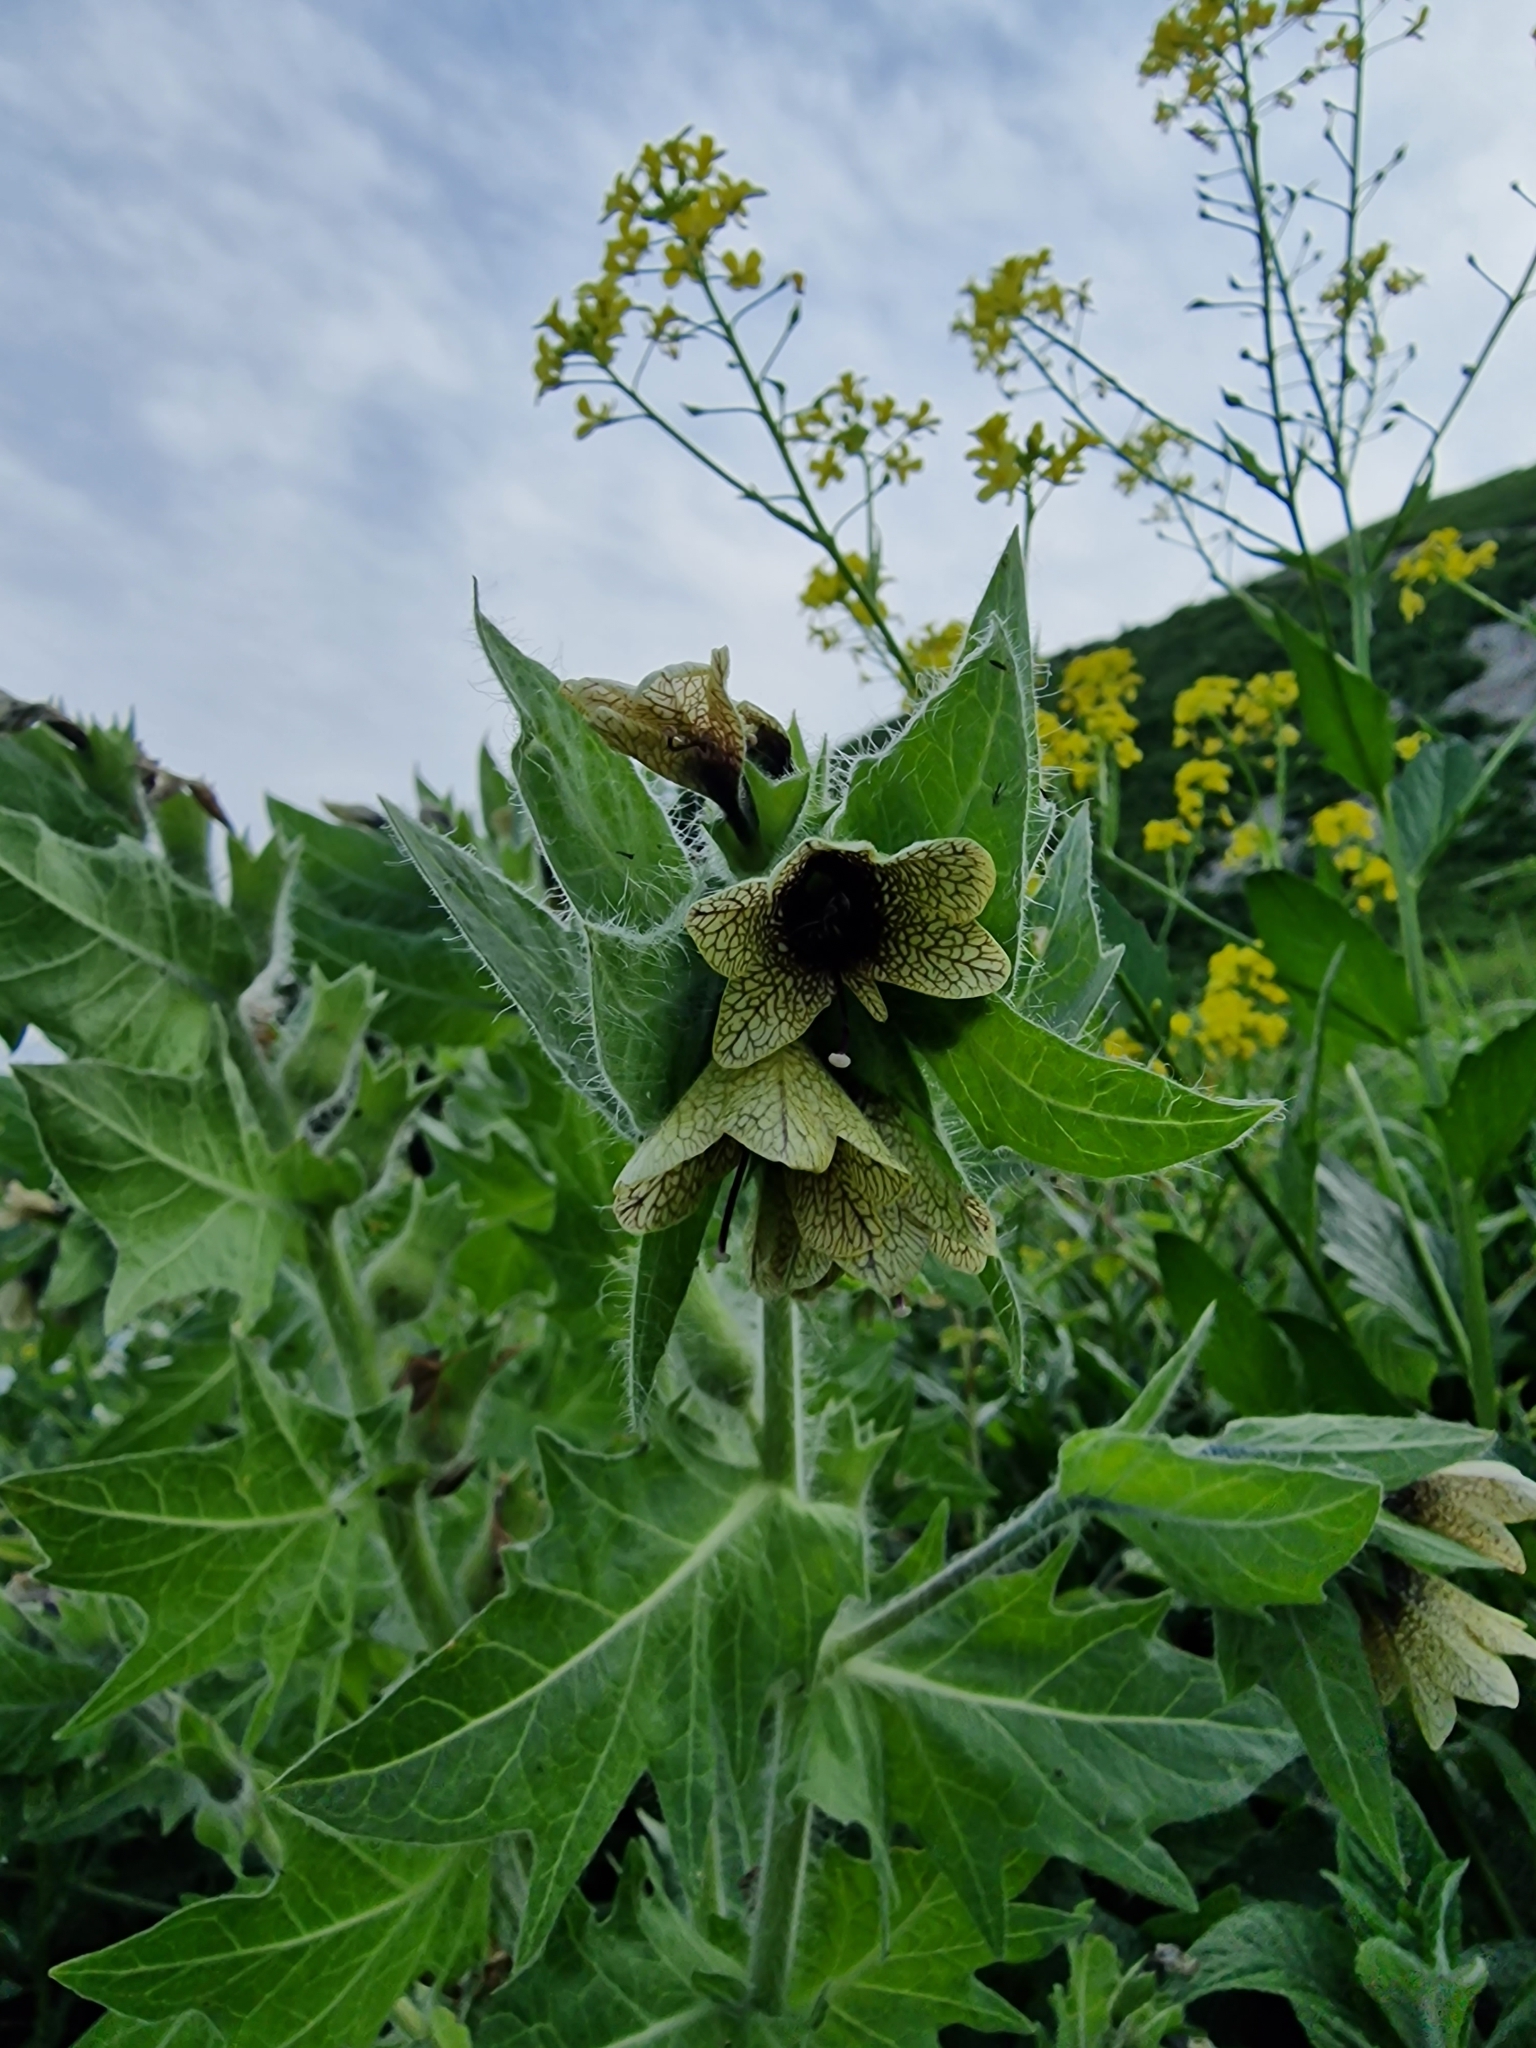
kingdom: Plantae
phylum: Tracheophyta
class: Magnoliopsida
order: Solanales
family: Solanaceae
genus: Hyoscyamus
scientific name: Hyoscyamus niger
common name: Henbane
